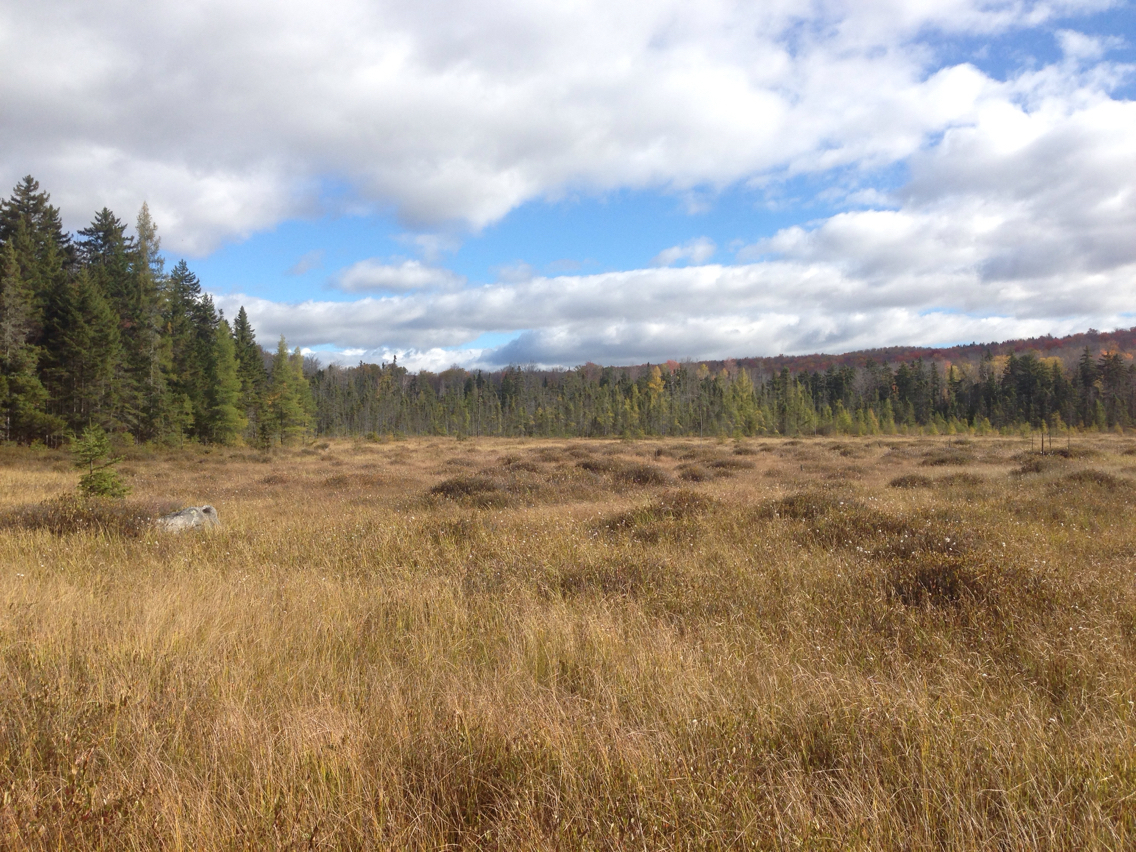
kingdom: Plantae
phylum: Tracheophyta
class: Pinopsida
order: Pinales
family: Pinaceae
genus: Larix
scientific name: Larix laricina
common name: American larch
